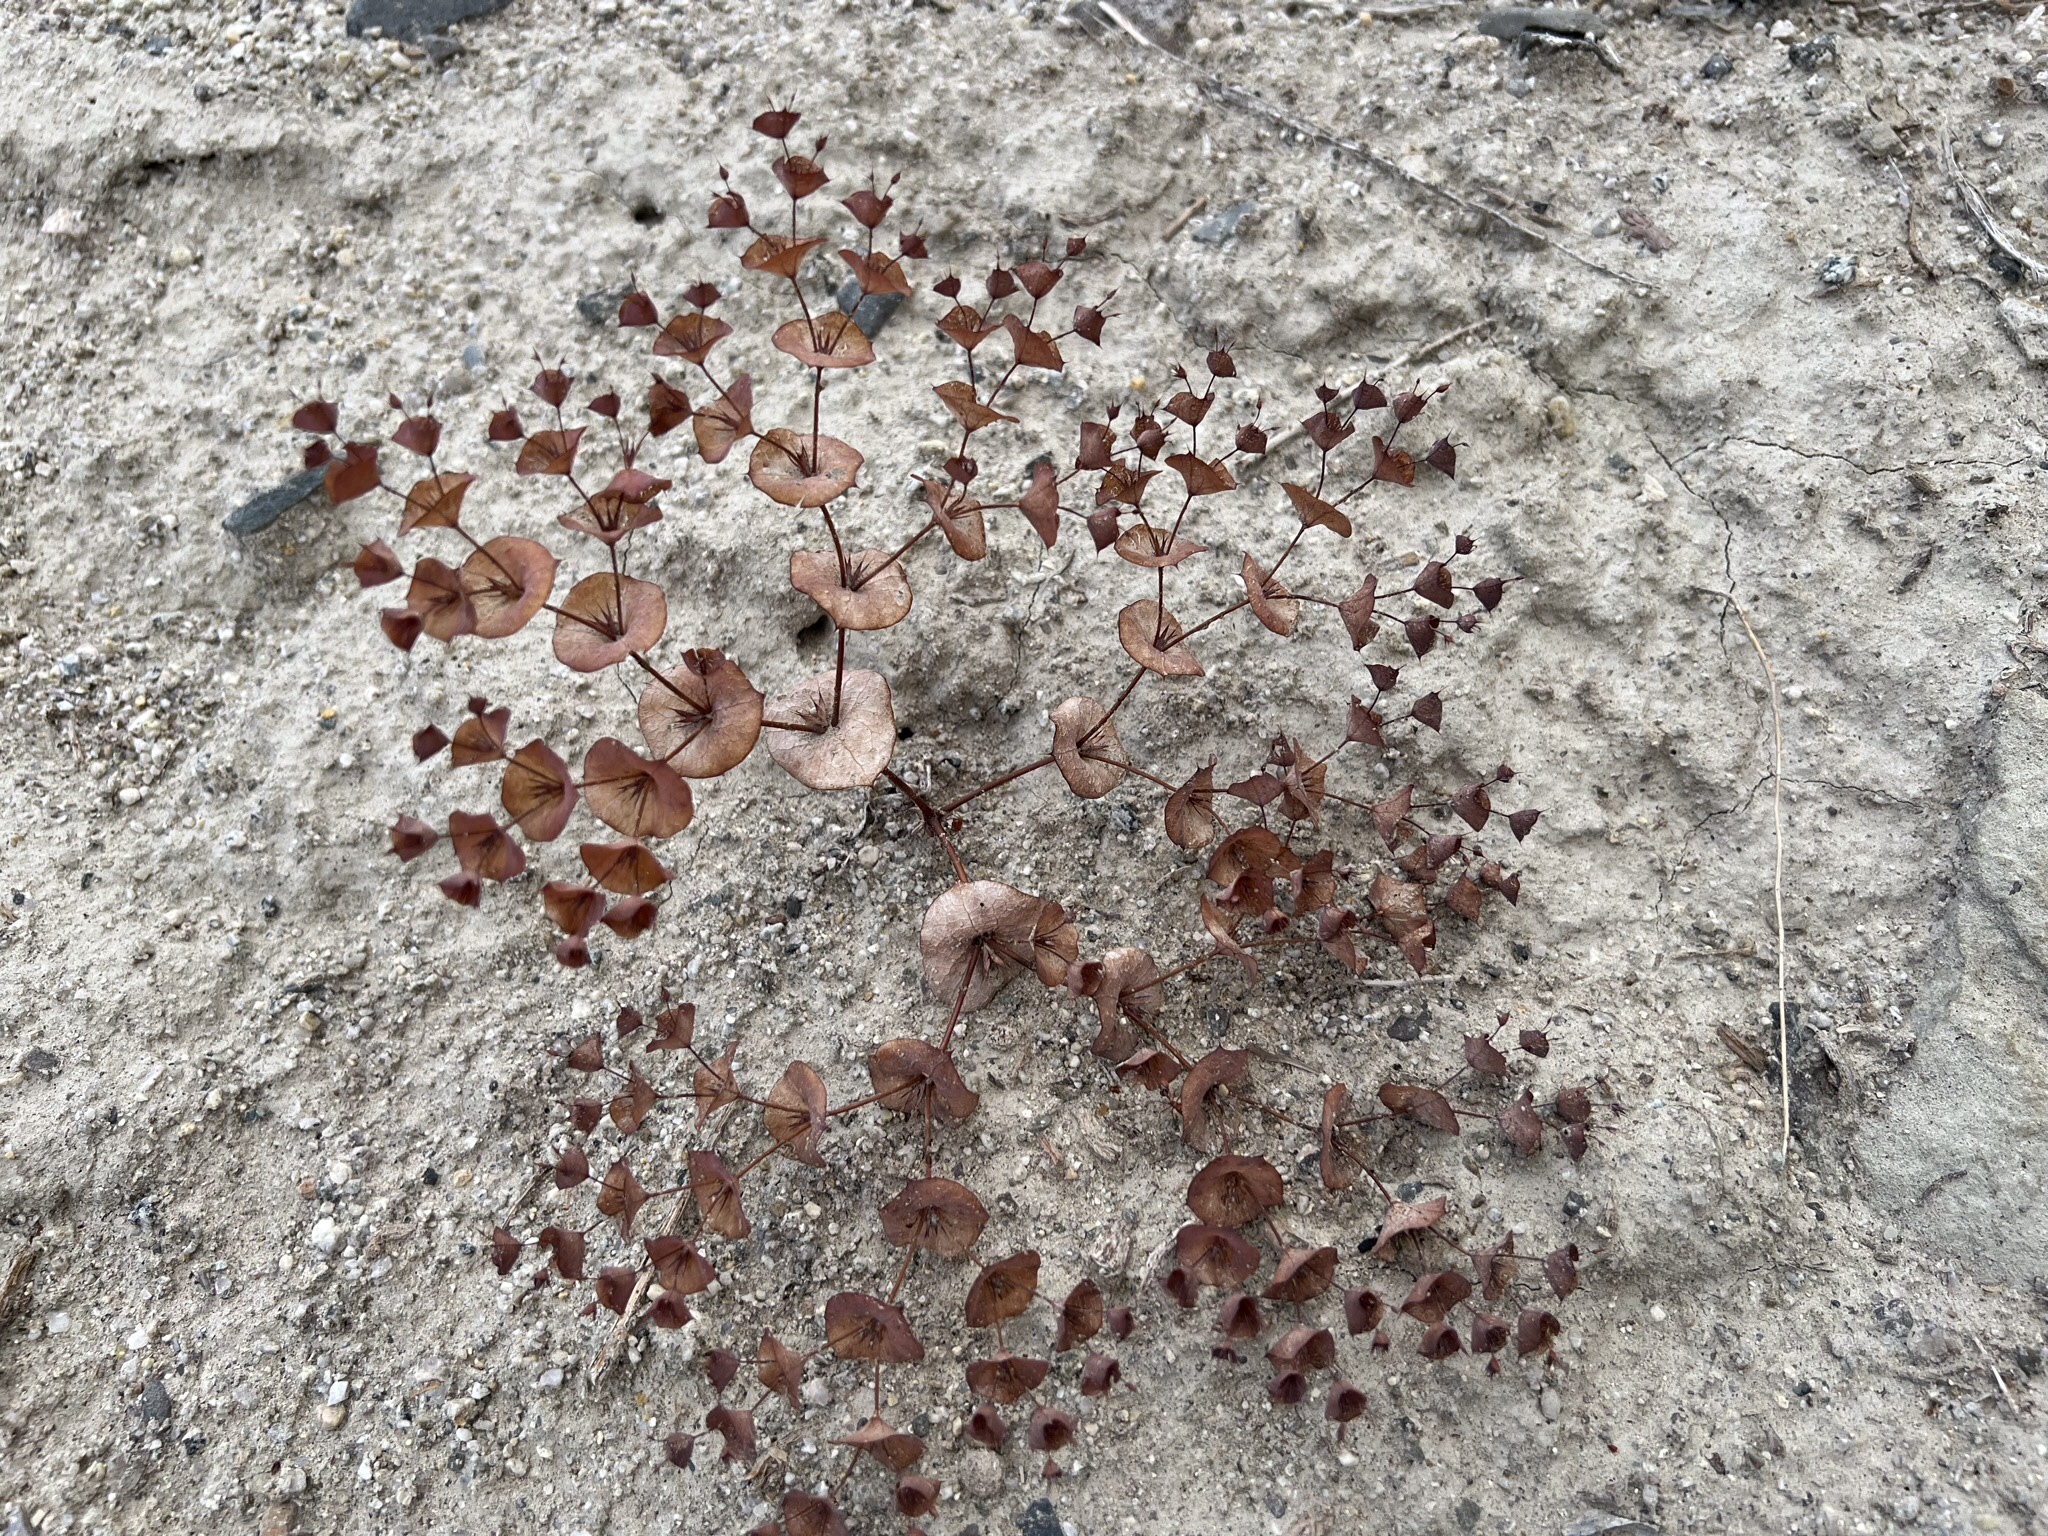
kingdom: Plantae
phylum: Tracheophyta
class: Magnoliopsida
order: Caryophyllales
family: Polygonaceae
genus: Oxytheca
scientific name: Oxytheca perfoliata
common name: Round-leaf puncturebract
